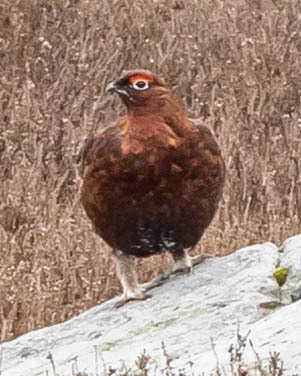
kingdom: Animalia
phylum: Chordata
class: Aves
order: Galliformes
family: Phasianidae
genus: Lagopus
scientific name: Lagopus lagopus
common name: Willow ptarmigan
